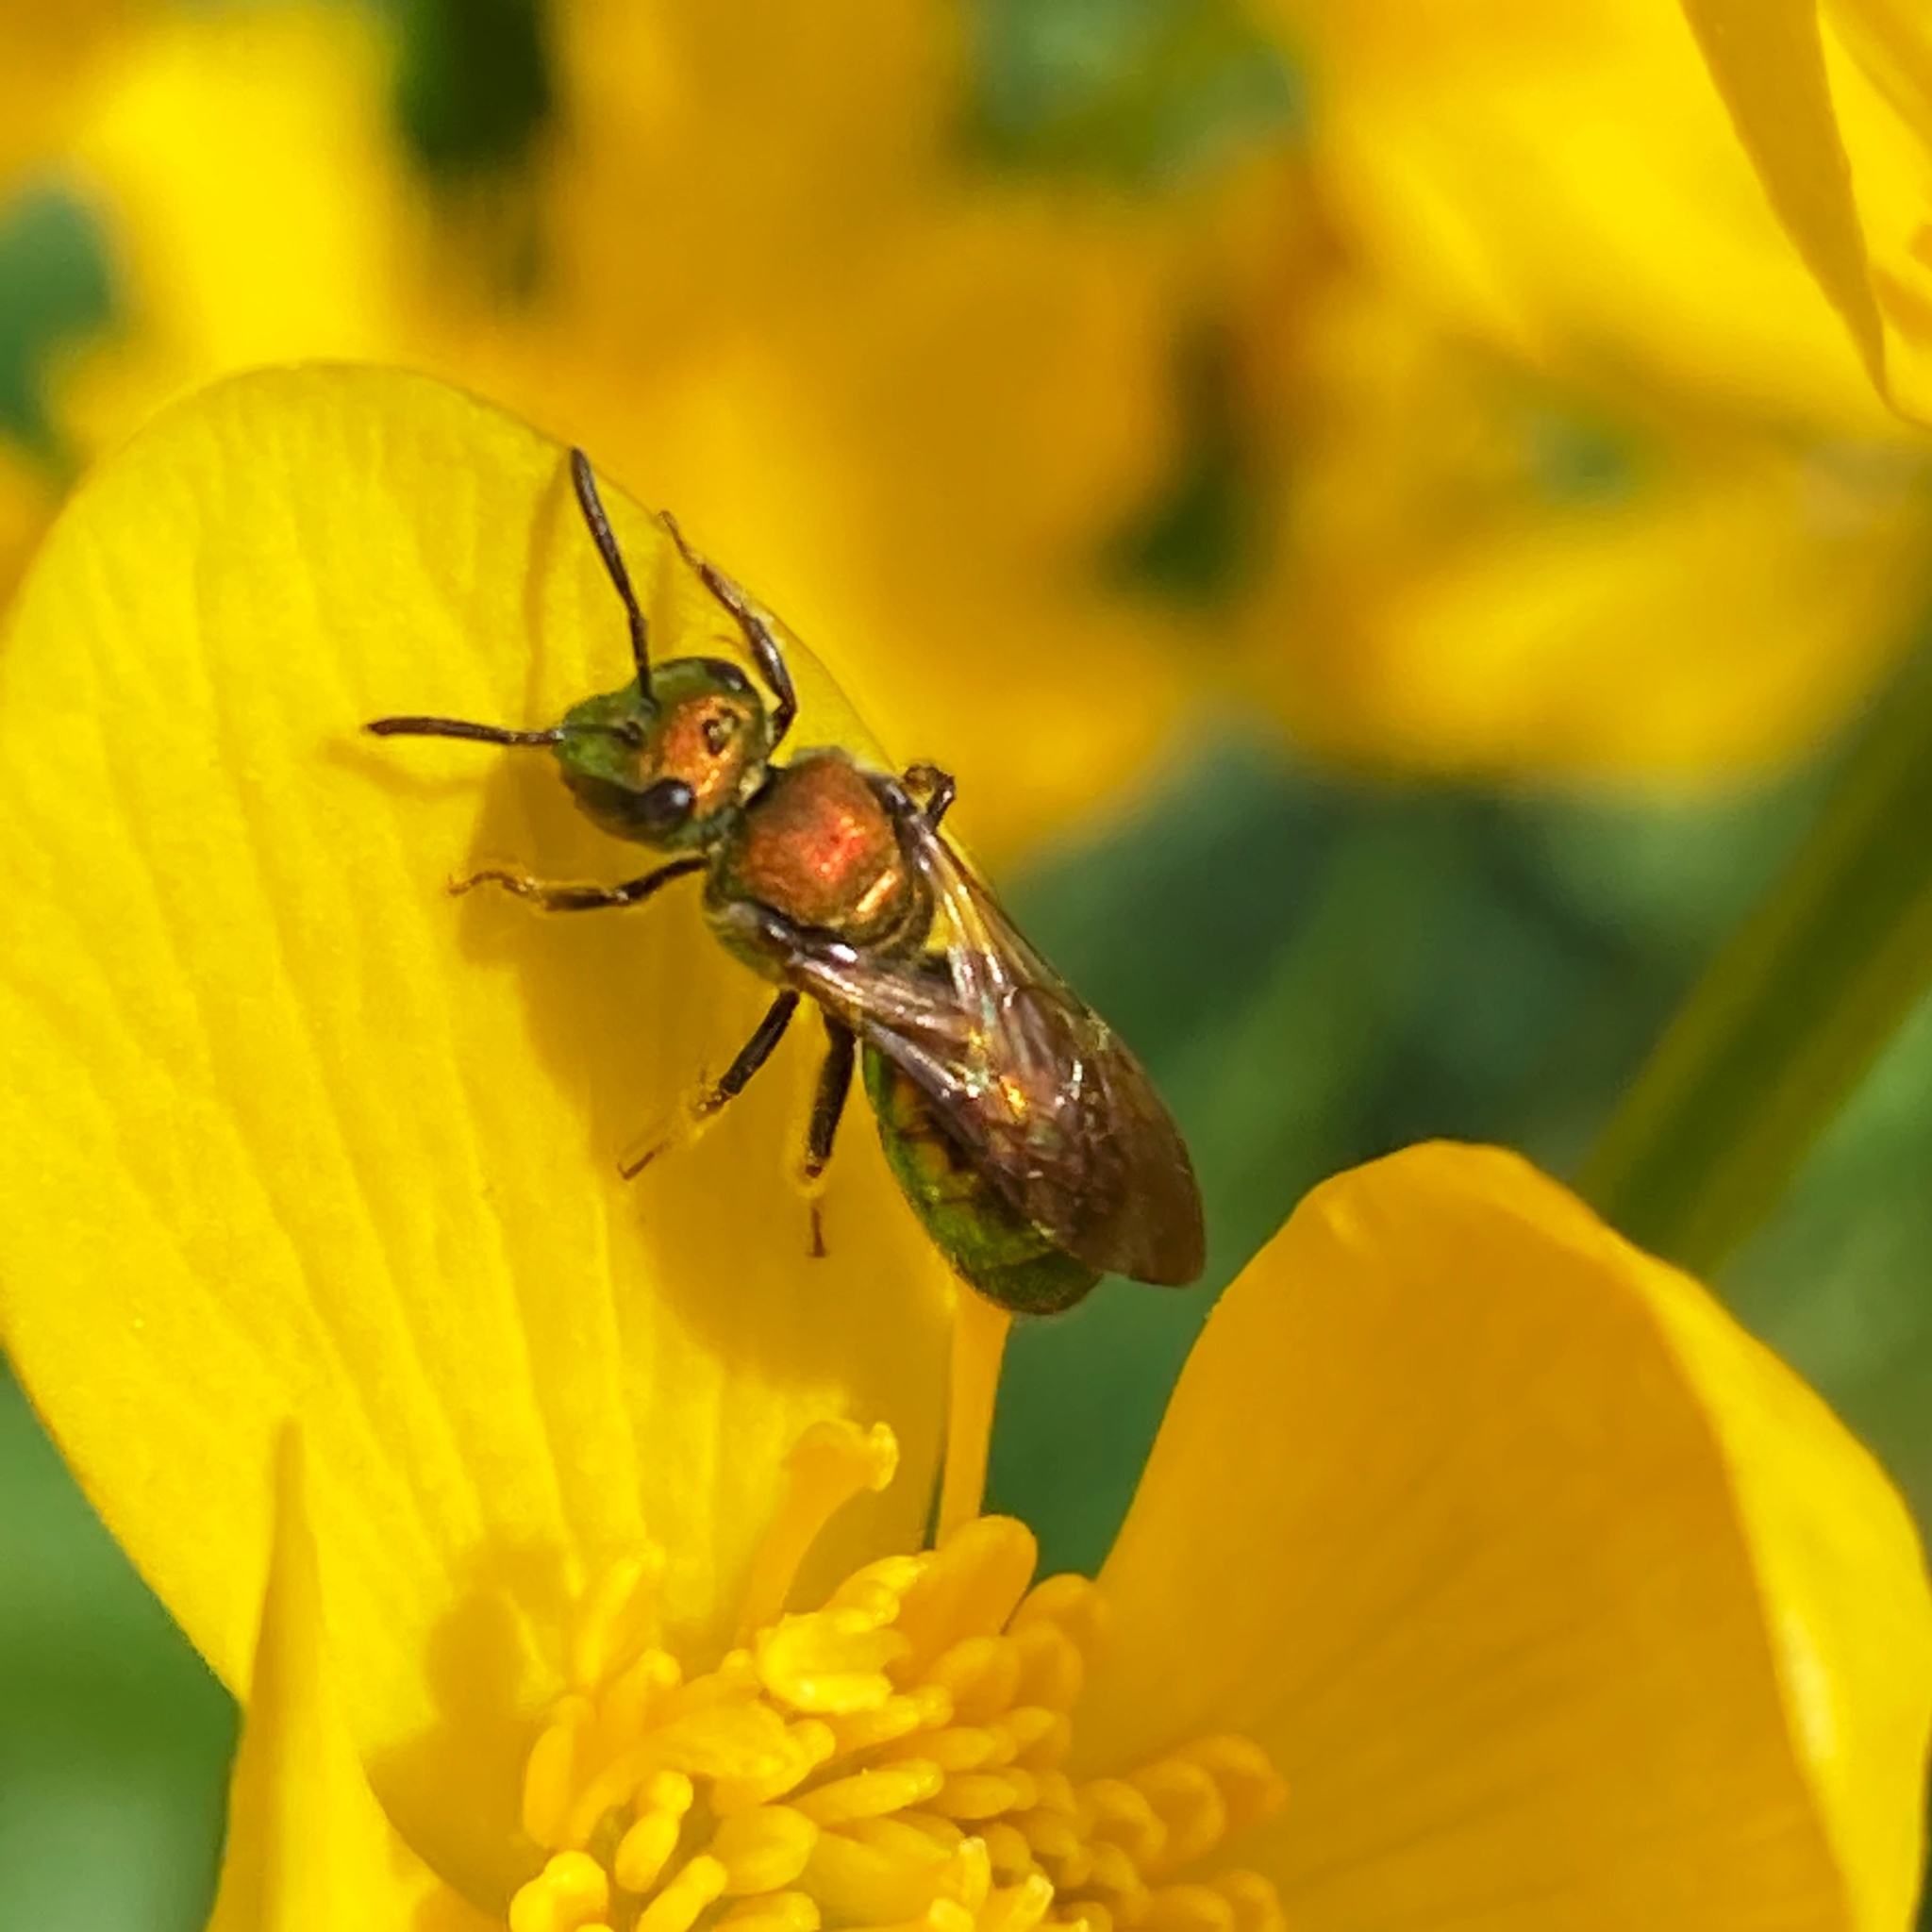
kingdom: Animalia
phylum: Arthropoda
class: Insecta
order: Hymenoptera
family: Halictidae
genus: Augochlora
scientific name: Augochlora pura
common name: Pure green sweat bee
